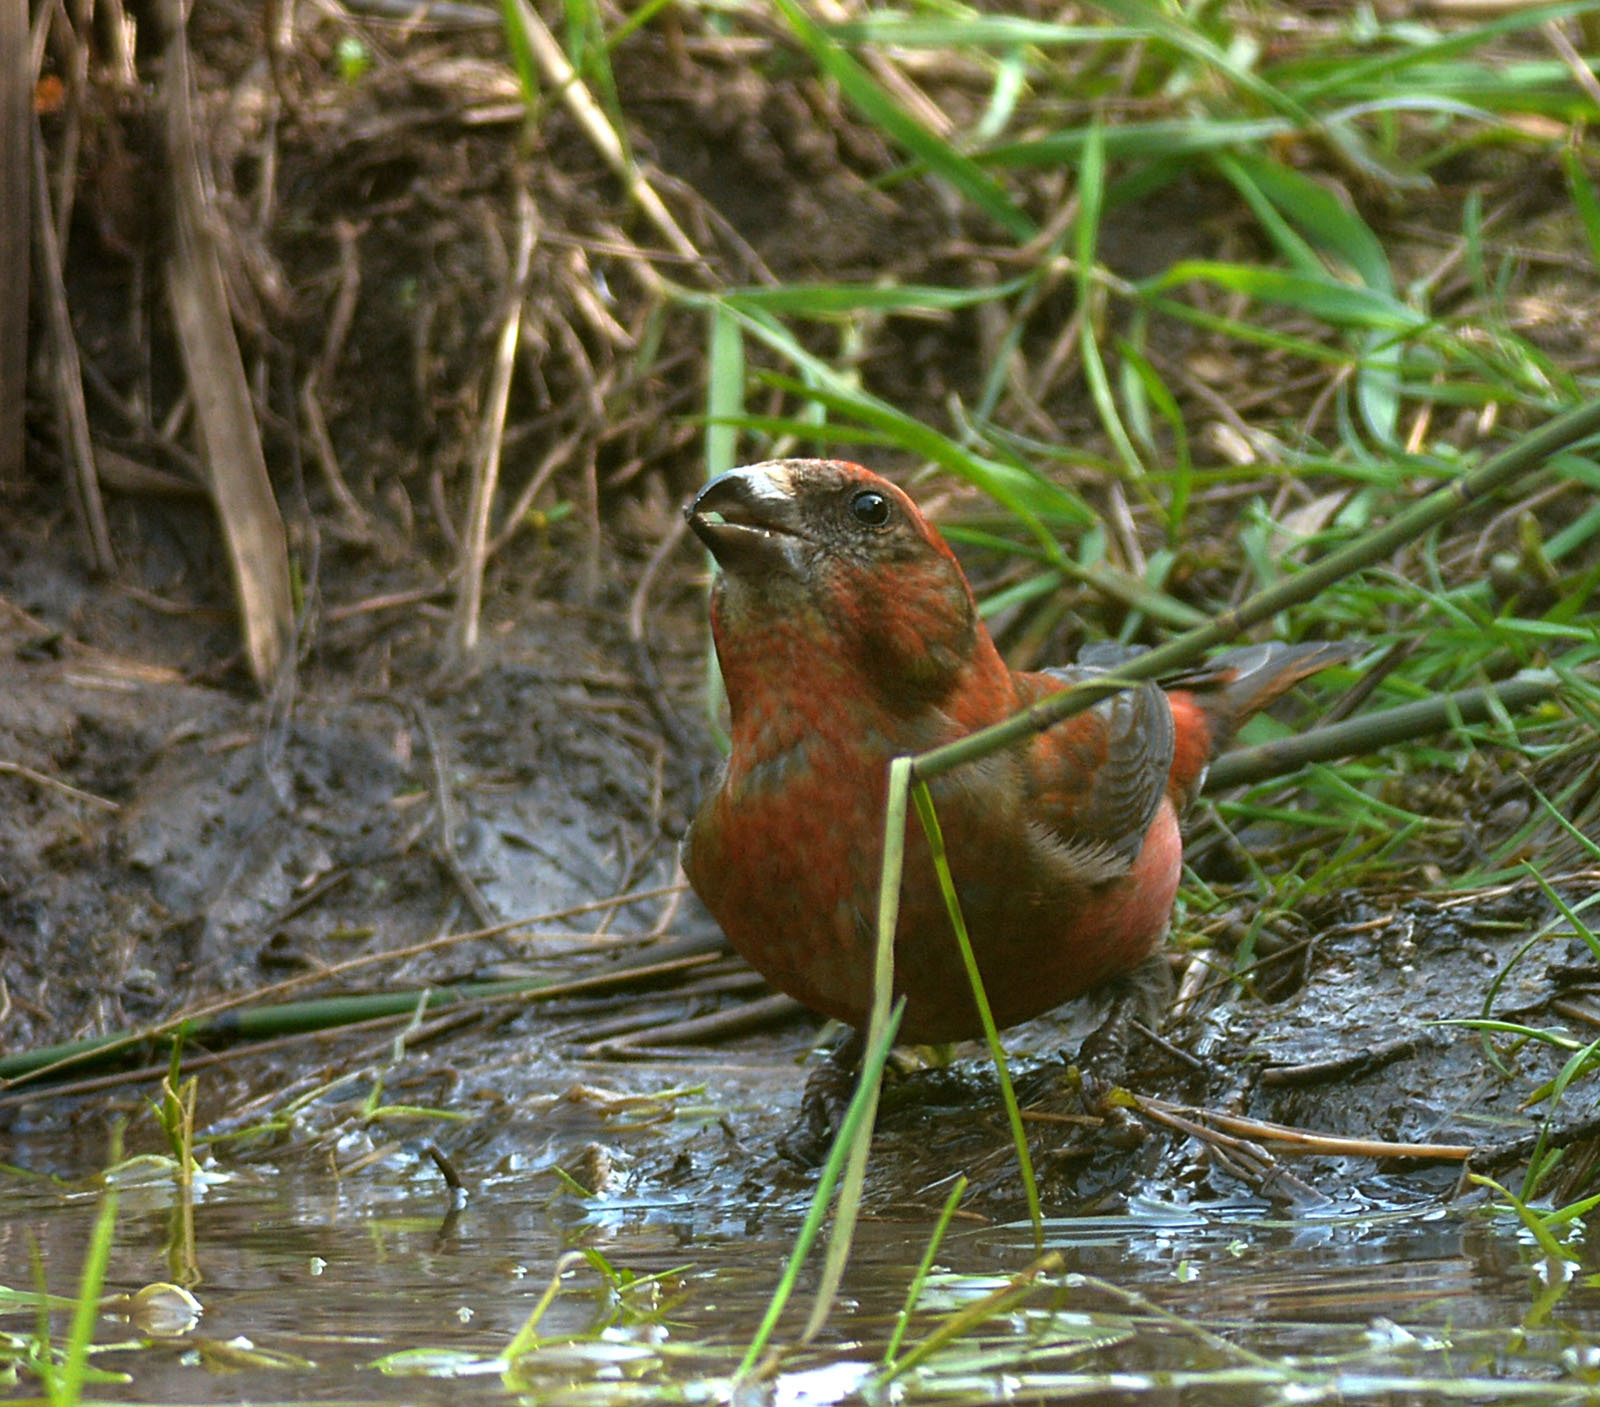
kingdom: Animalia
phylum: Chordata
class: Aves
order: Passeriformes
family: Fringillidae
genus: Loxia
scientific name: Loxia curvirostra
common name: Red crossbill
